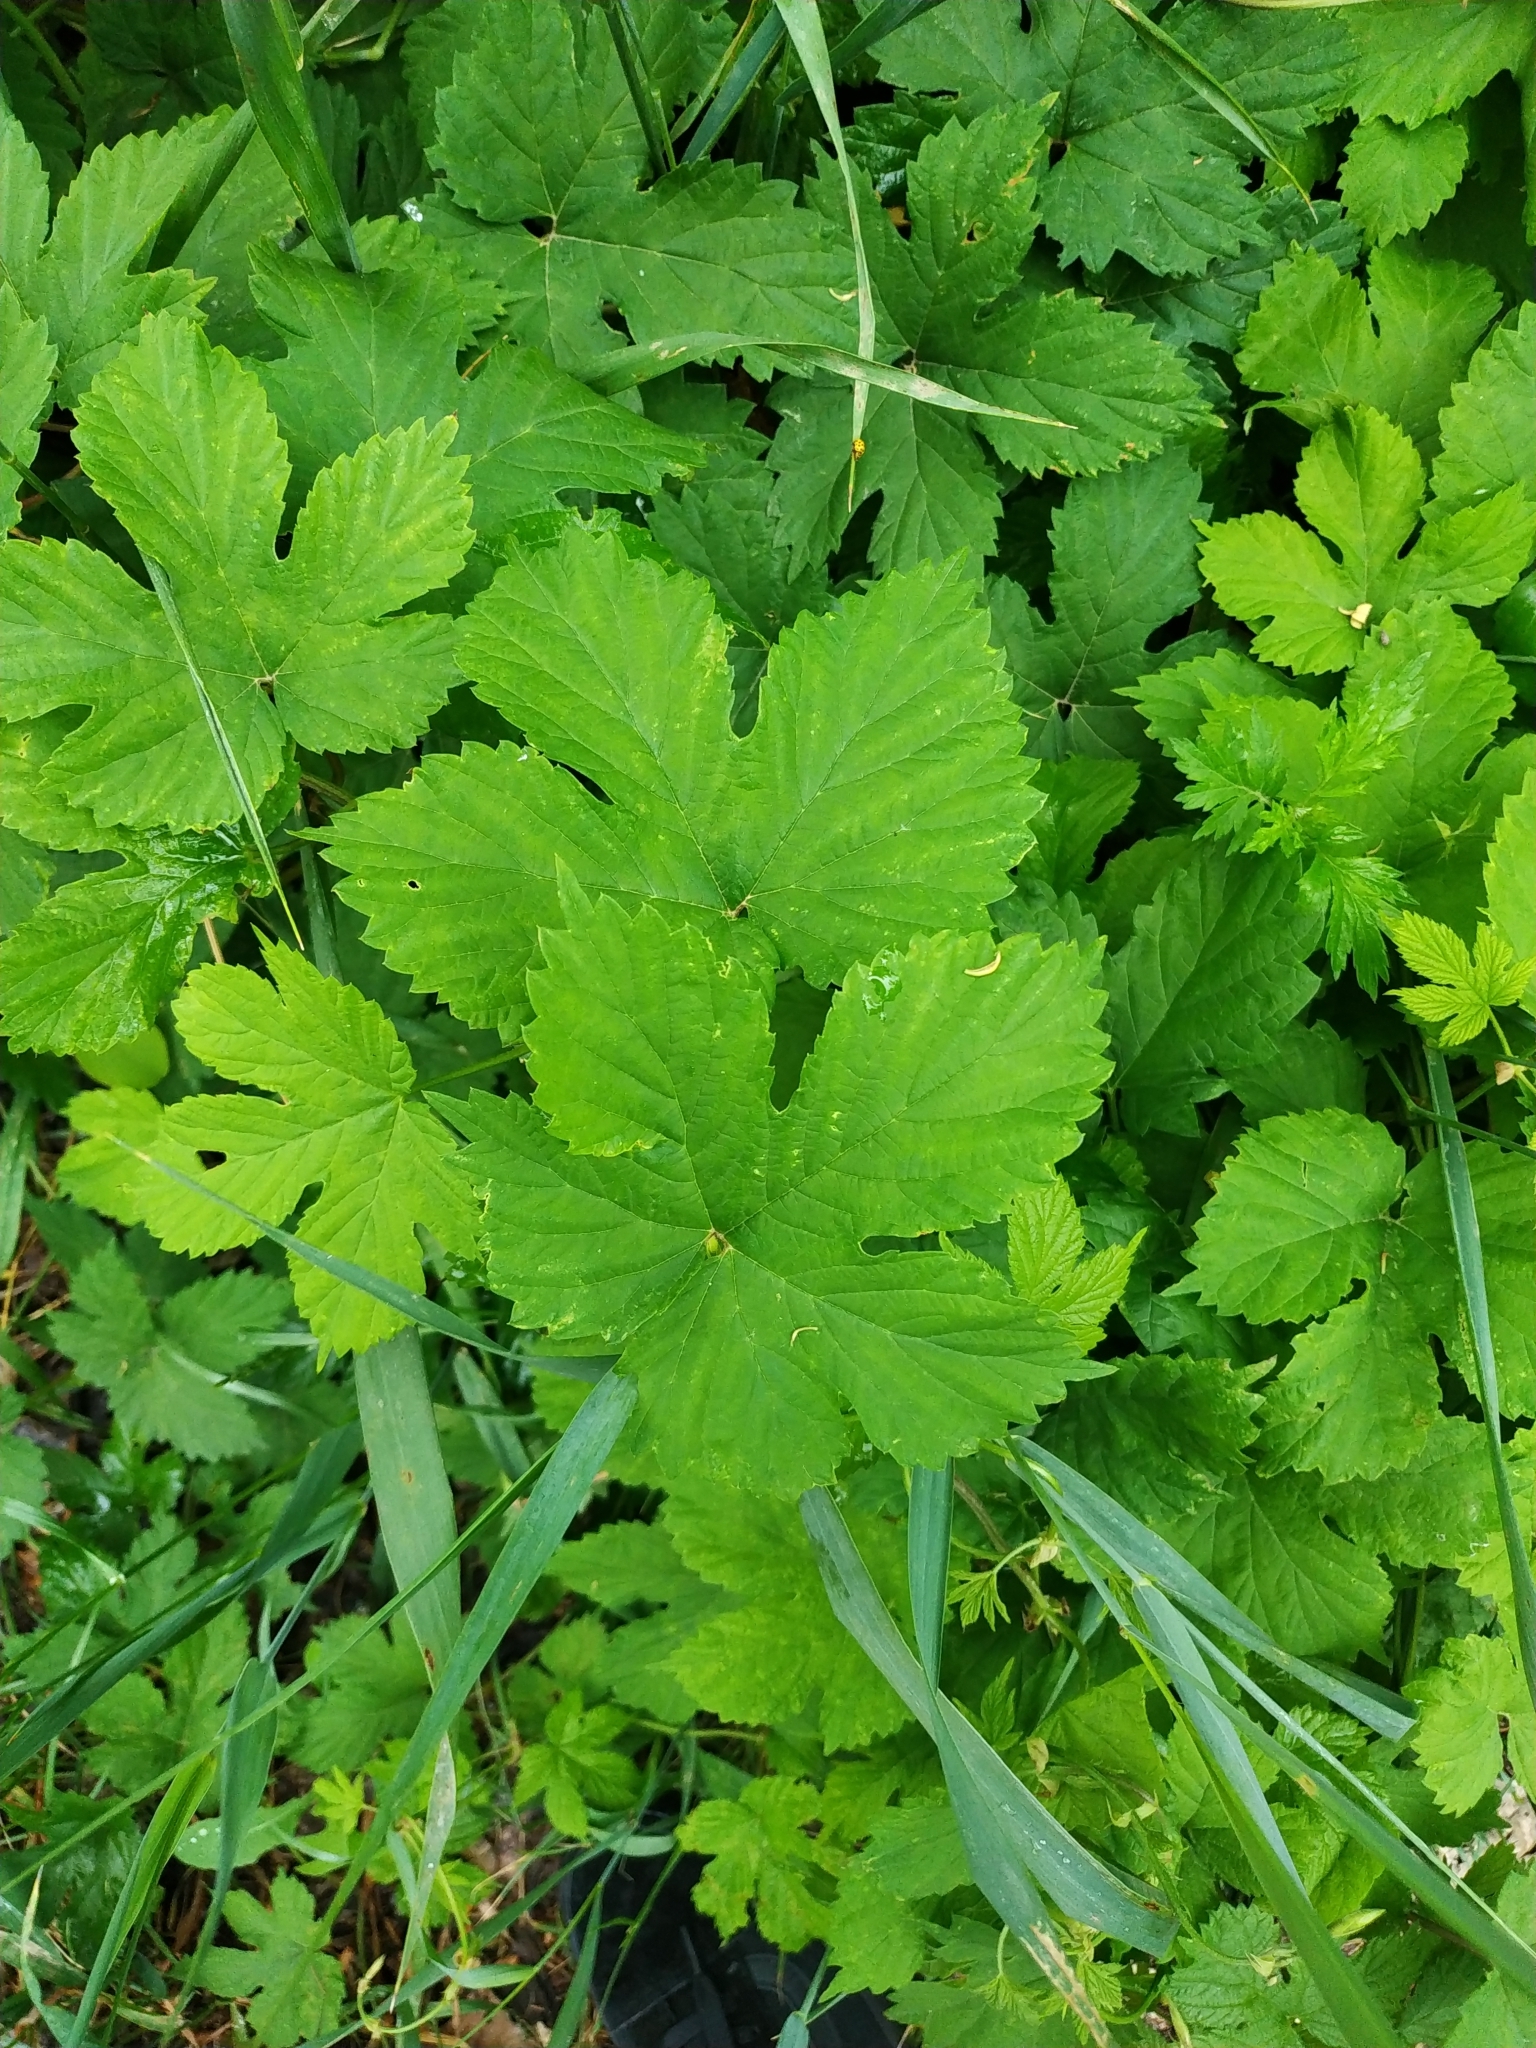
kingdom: Plantae
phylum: Tracheophyta
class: Magnoliopsida
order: Rosales
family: Cannabaceae
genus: Humulus
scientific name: Humulus lupulus
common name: Hop
